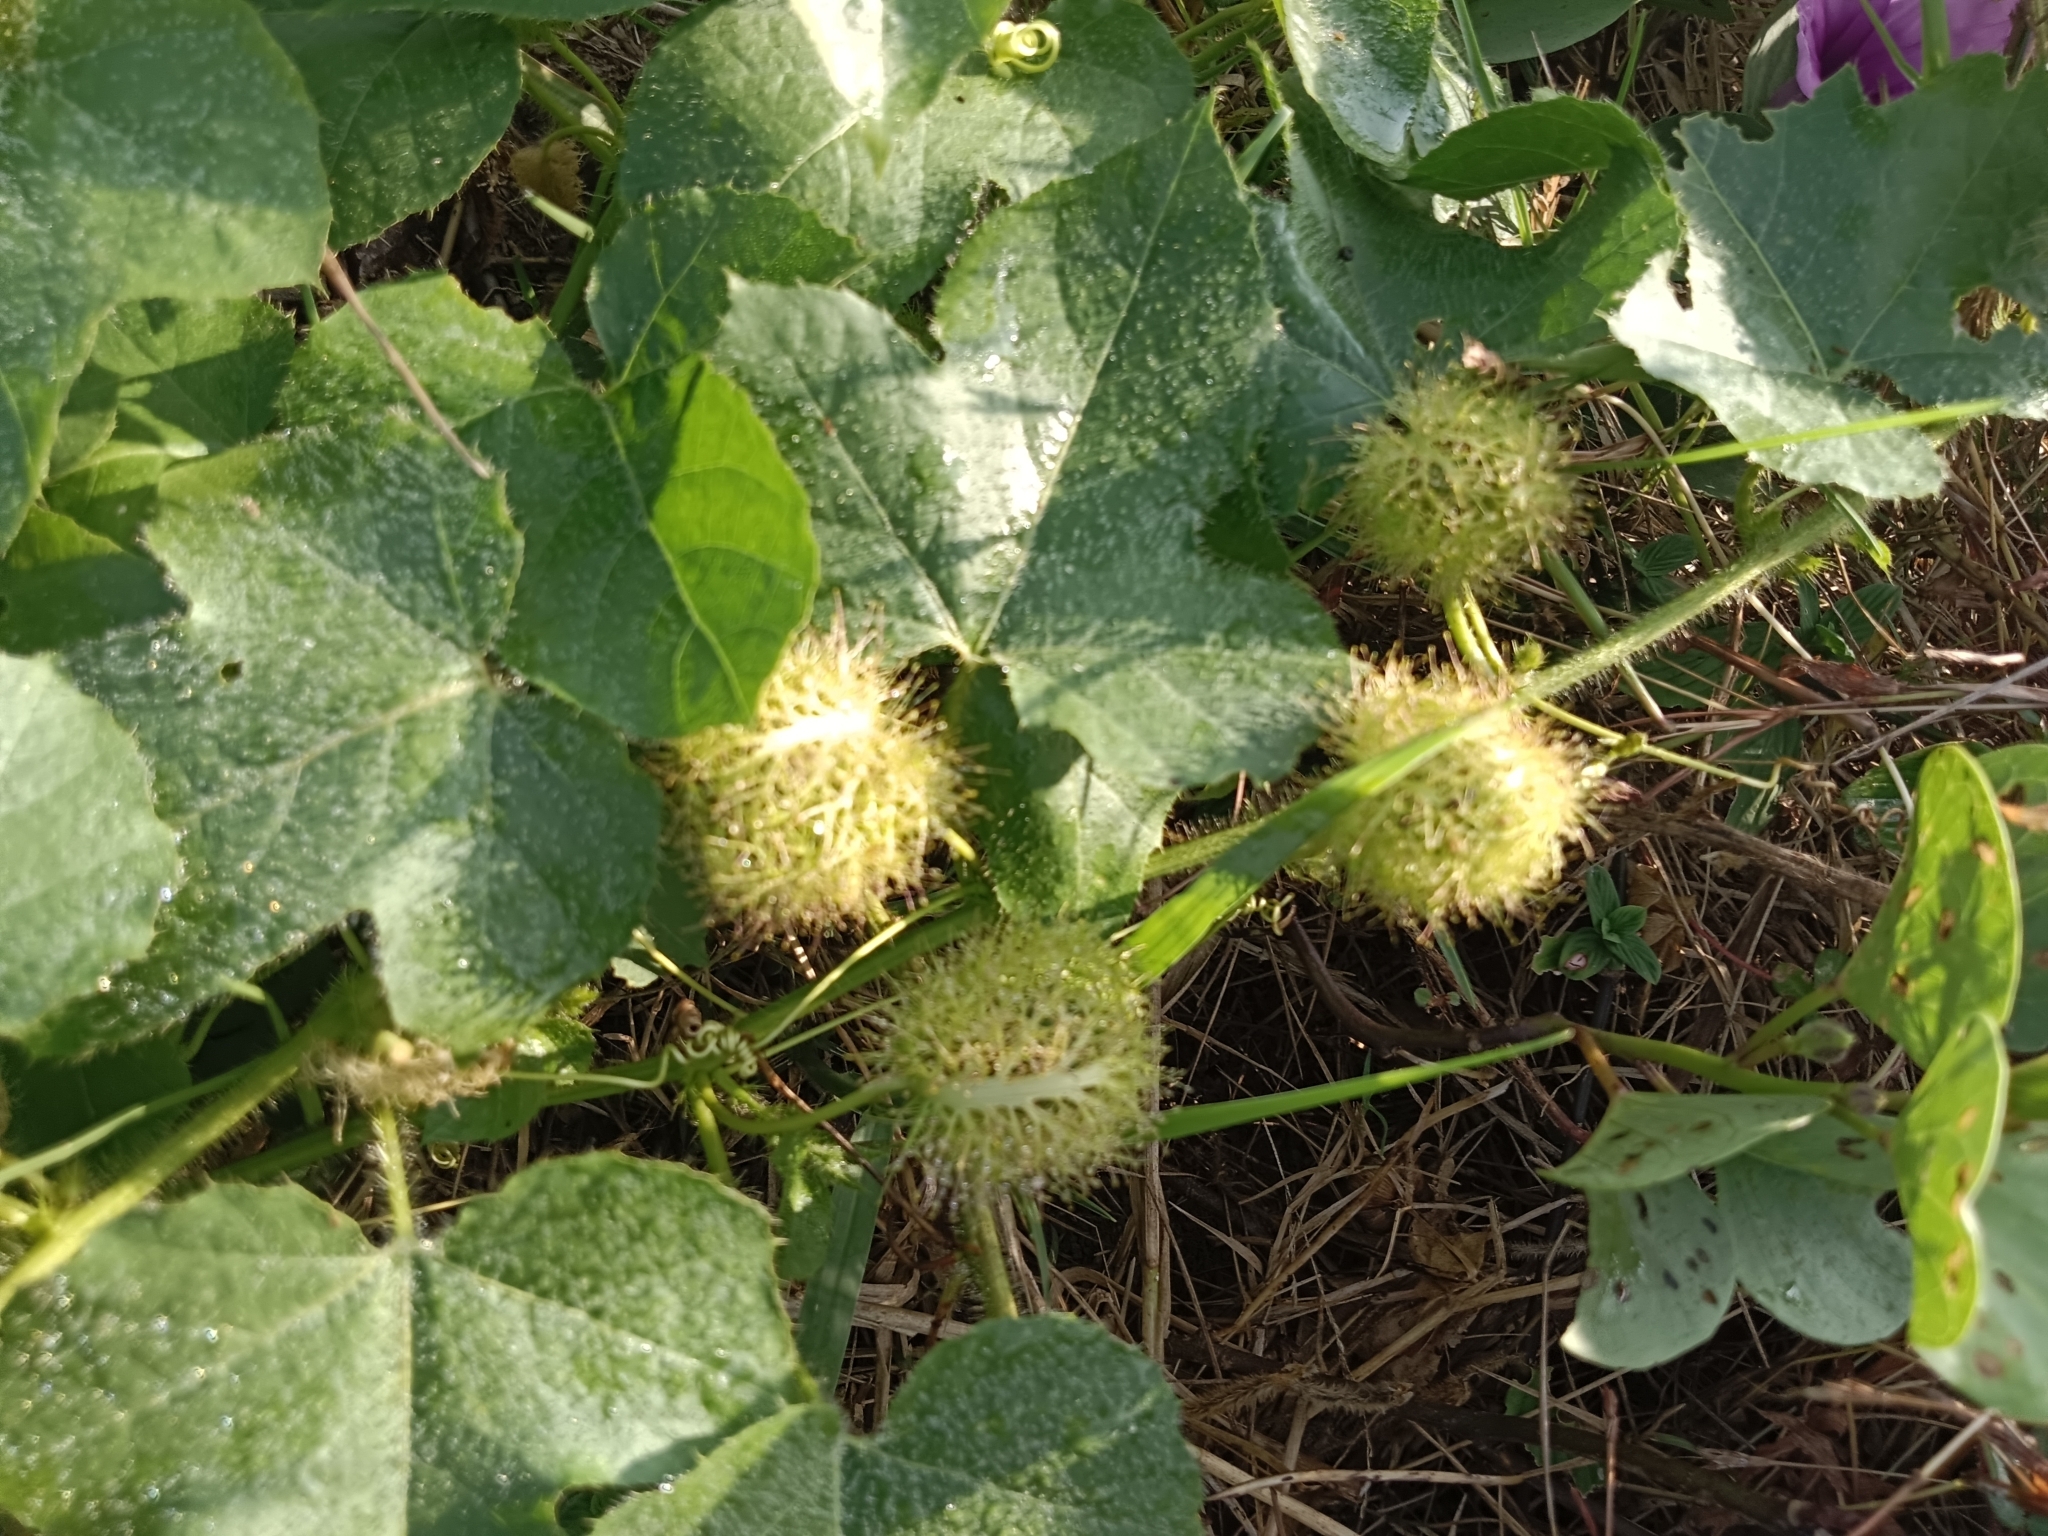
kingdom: Plantae
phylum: Tracheophyta
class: Magnoliopsida
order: Malpighiales
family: Passifloraceae
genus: Passiflora
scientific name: Passiflora vesicaria
